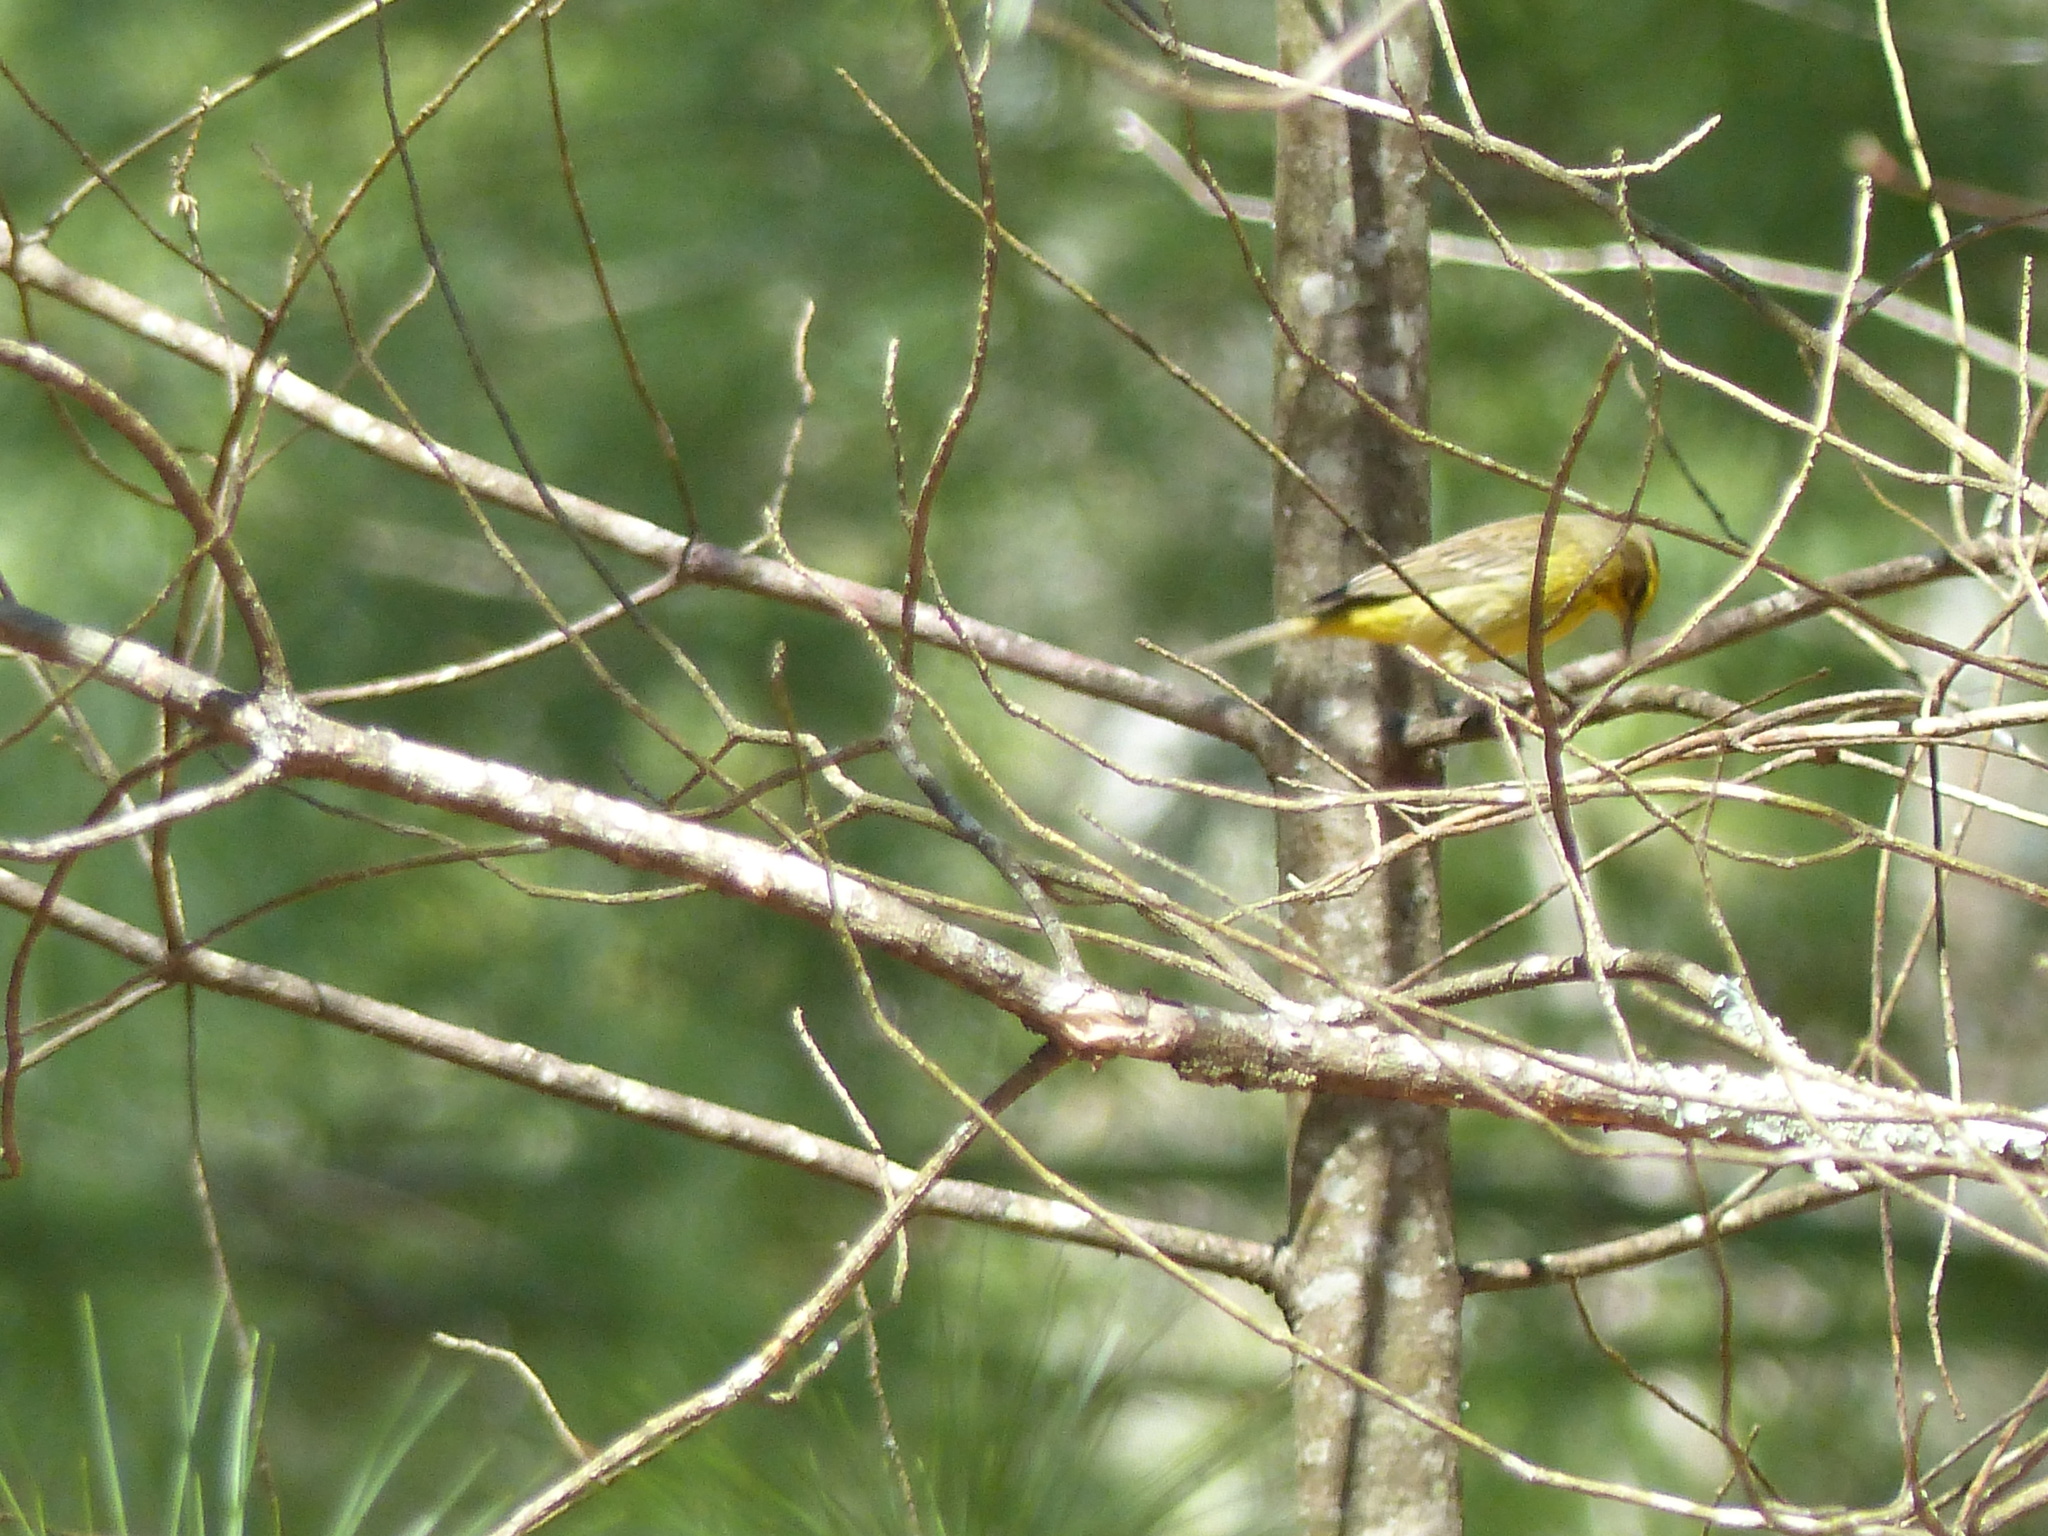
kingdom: Animalia
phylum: Chordata
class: Aves
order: Passeriformes
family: Parulidae
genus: Setophaga
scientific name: Setophaga palmarum
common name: Palm warbler
